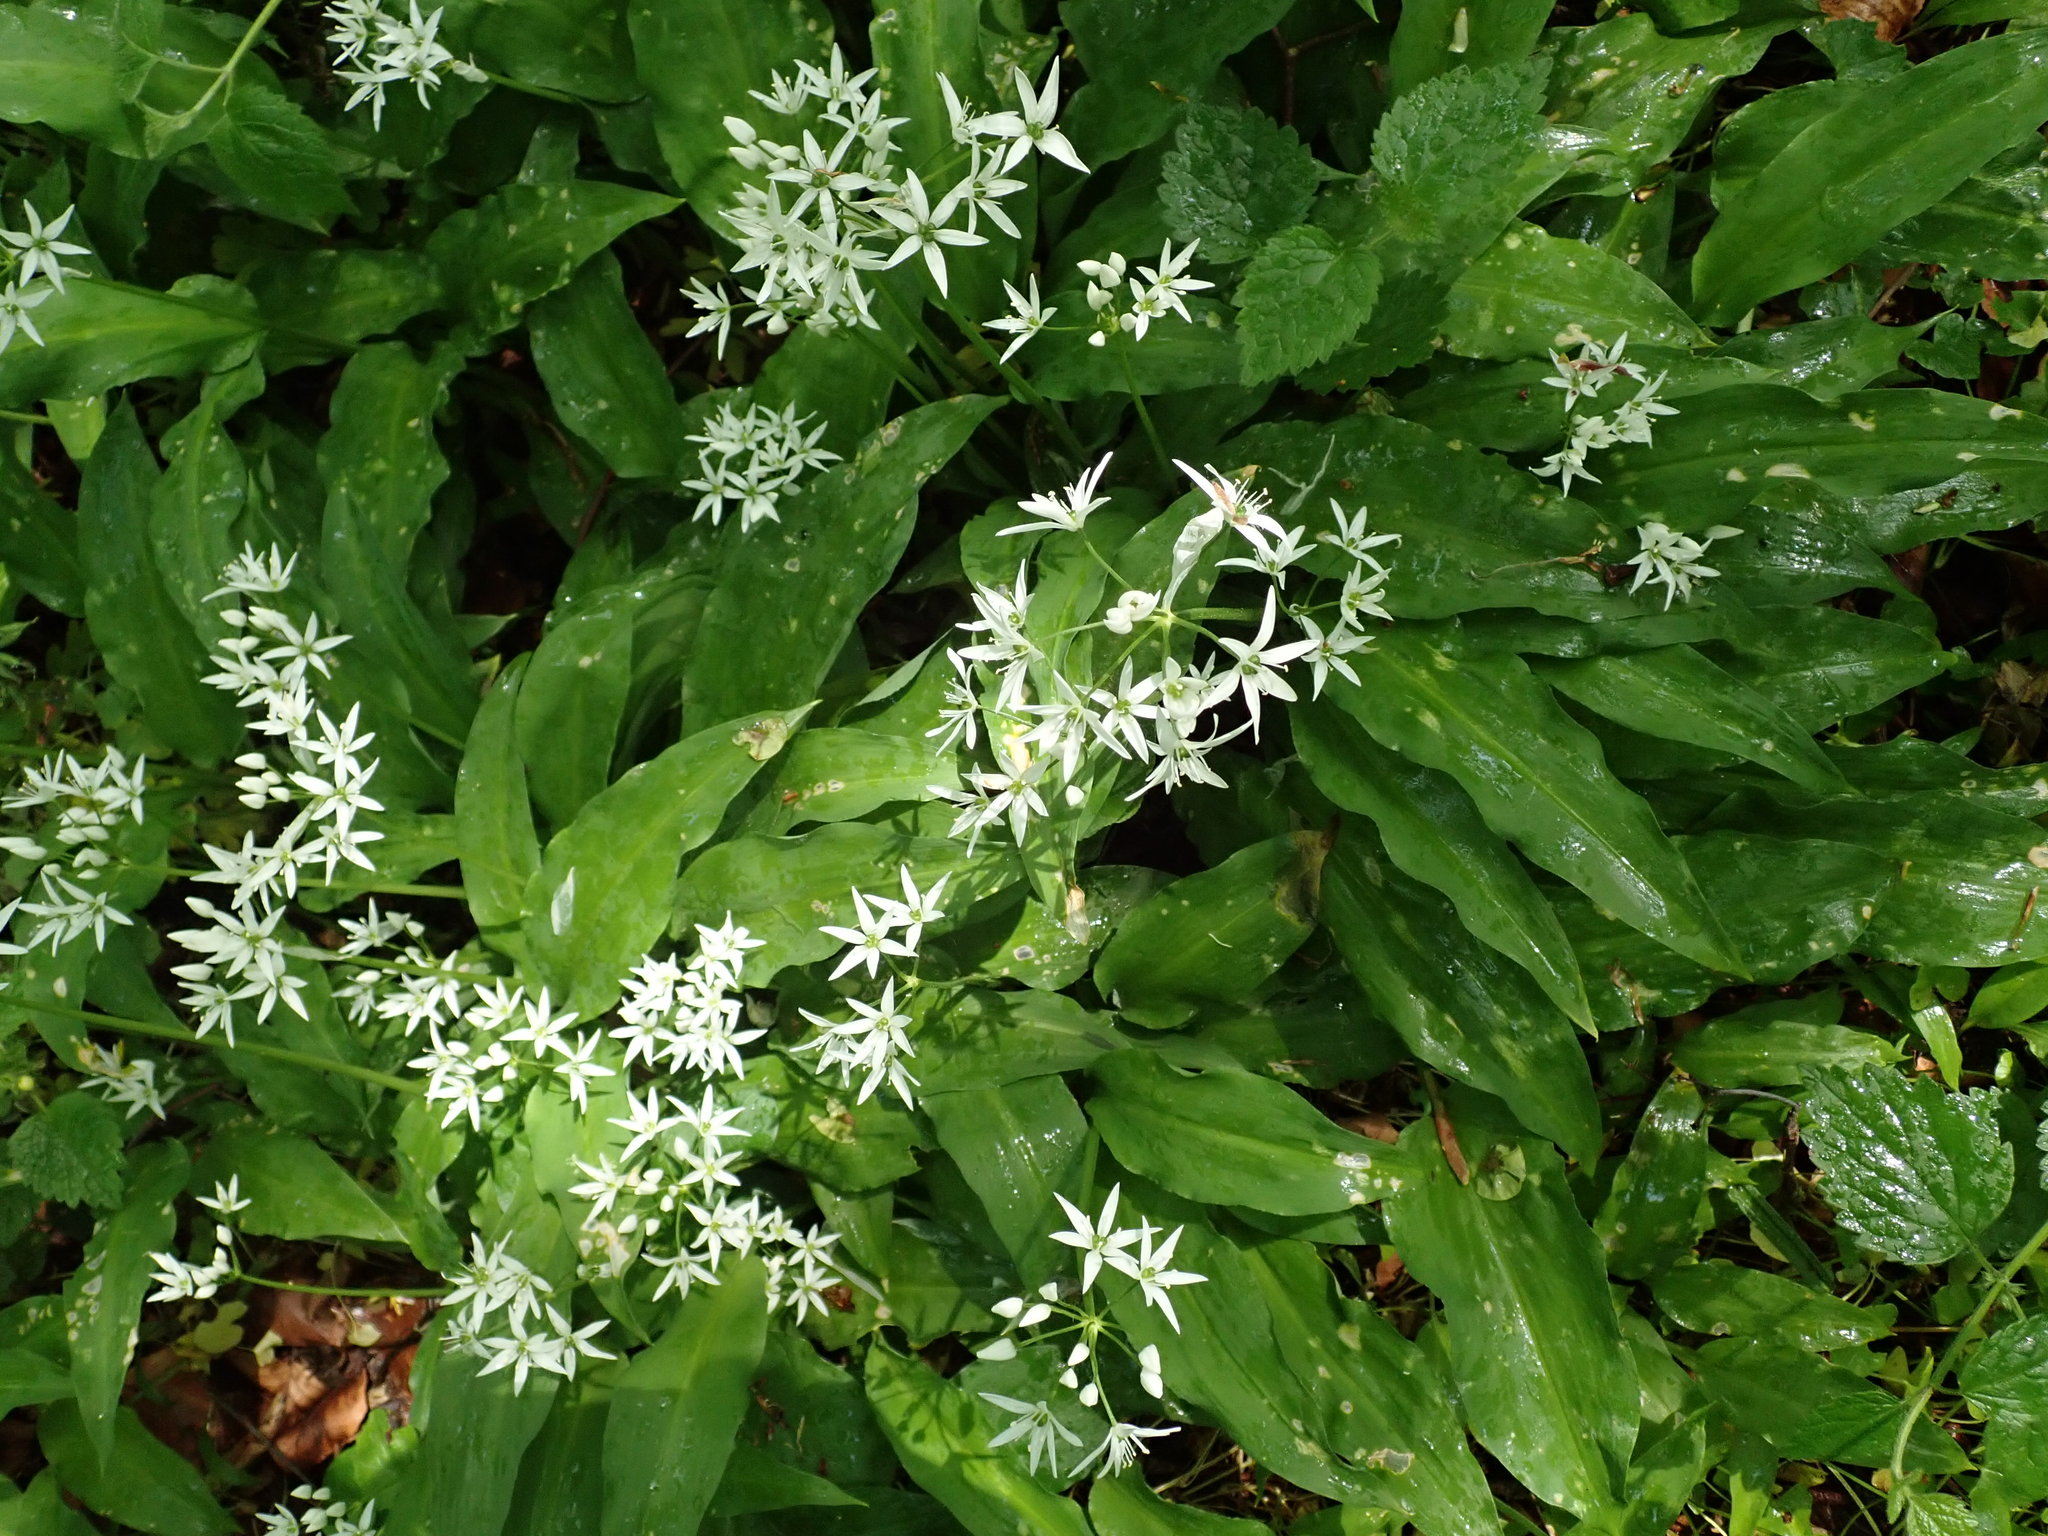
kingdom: Plantae
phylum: Tracheophyta
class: Liliopsida
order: Asparagales
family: Amaryllidaceae
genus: Allium
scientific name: Allium ursinum
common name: Ramsons
